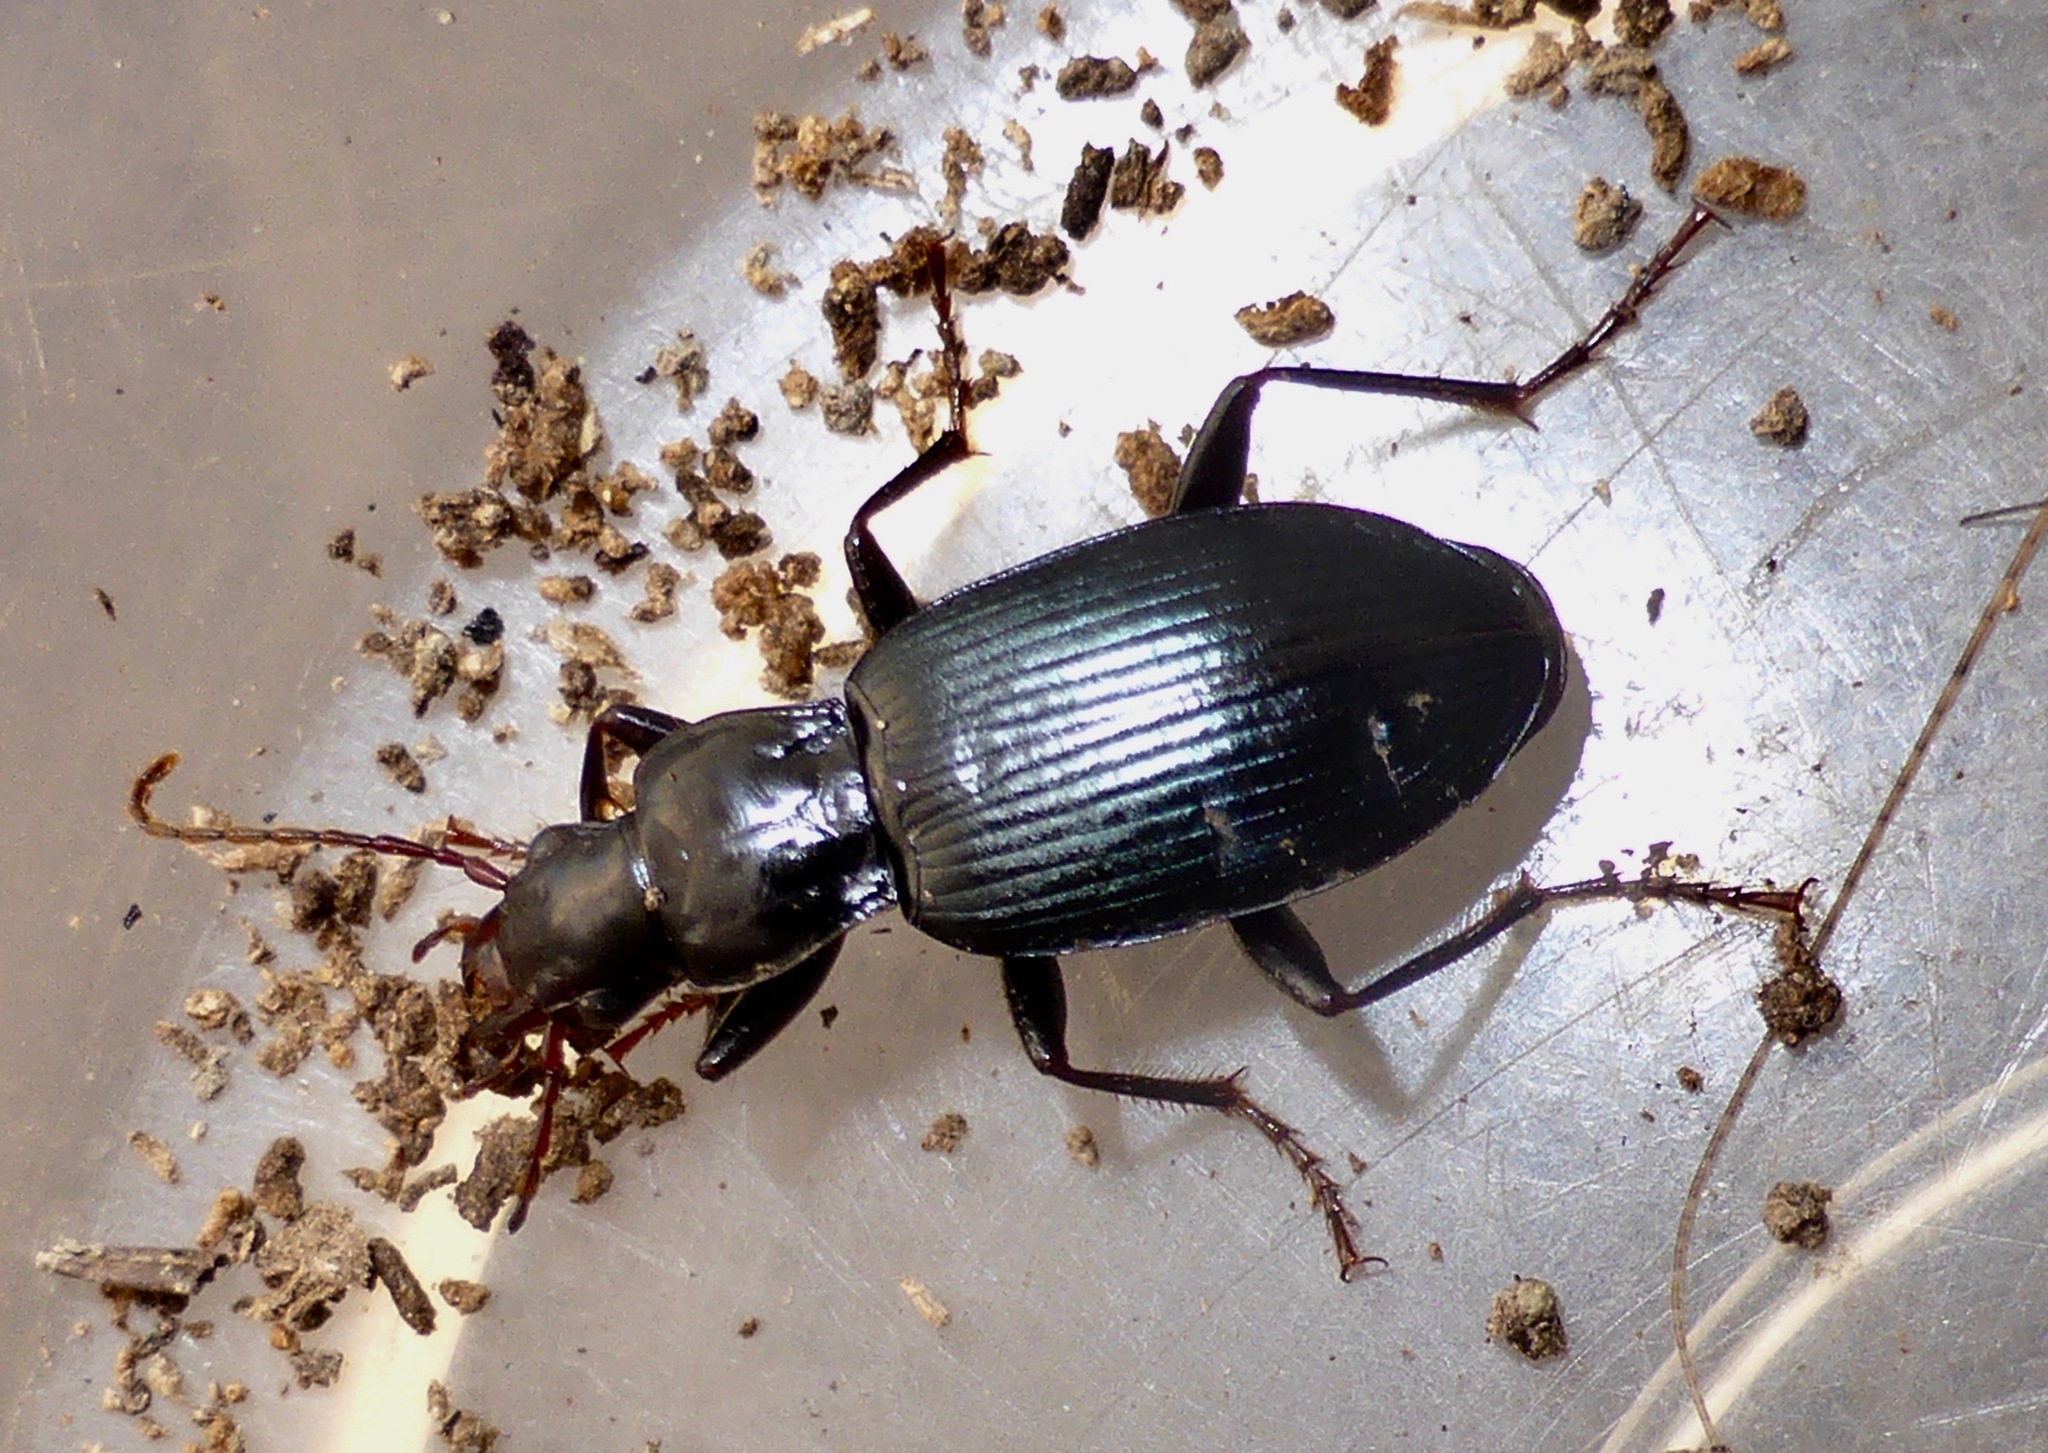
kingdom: Animalia
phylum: Arthropoda
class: Insecta
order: Coleoptera
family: Carabidae
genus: Laemostenus
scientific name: Laemostenus complanatus
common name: Cosmopolitan ground beetle
